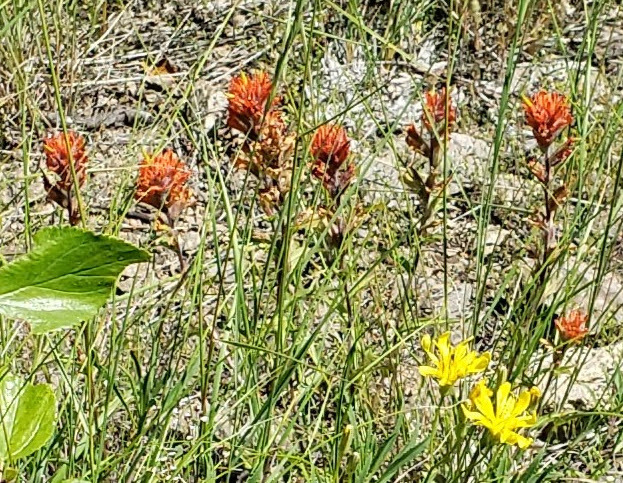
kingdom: Plantae
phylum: Tracheophyta
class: Magnoliopsida
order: Lamiales
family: Orobanchaceae
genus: Castilleja
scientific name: Castilleja hispida
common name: Bristly paintbrush
